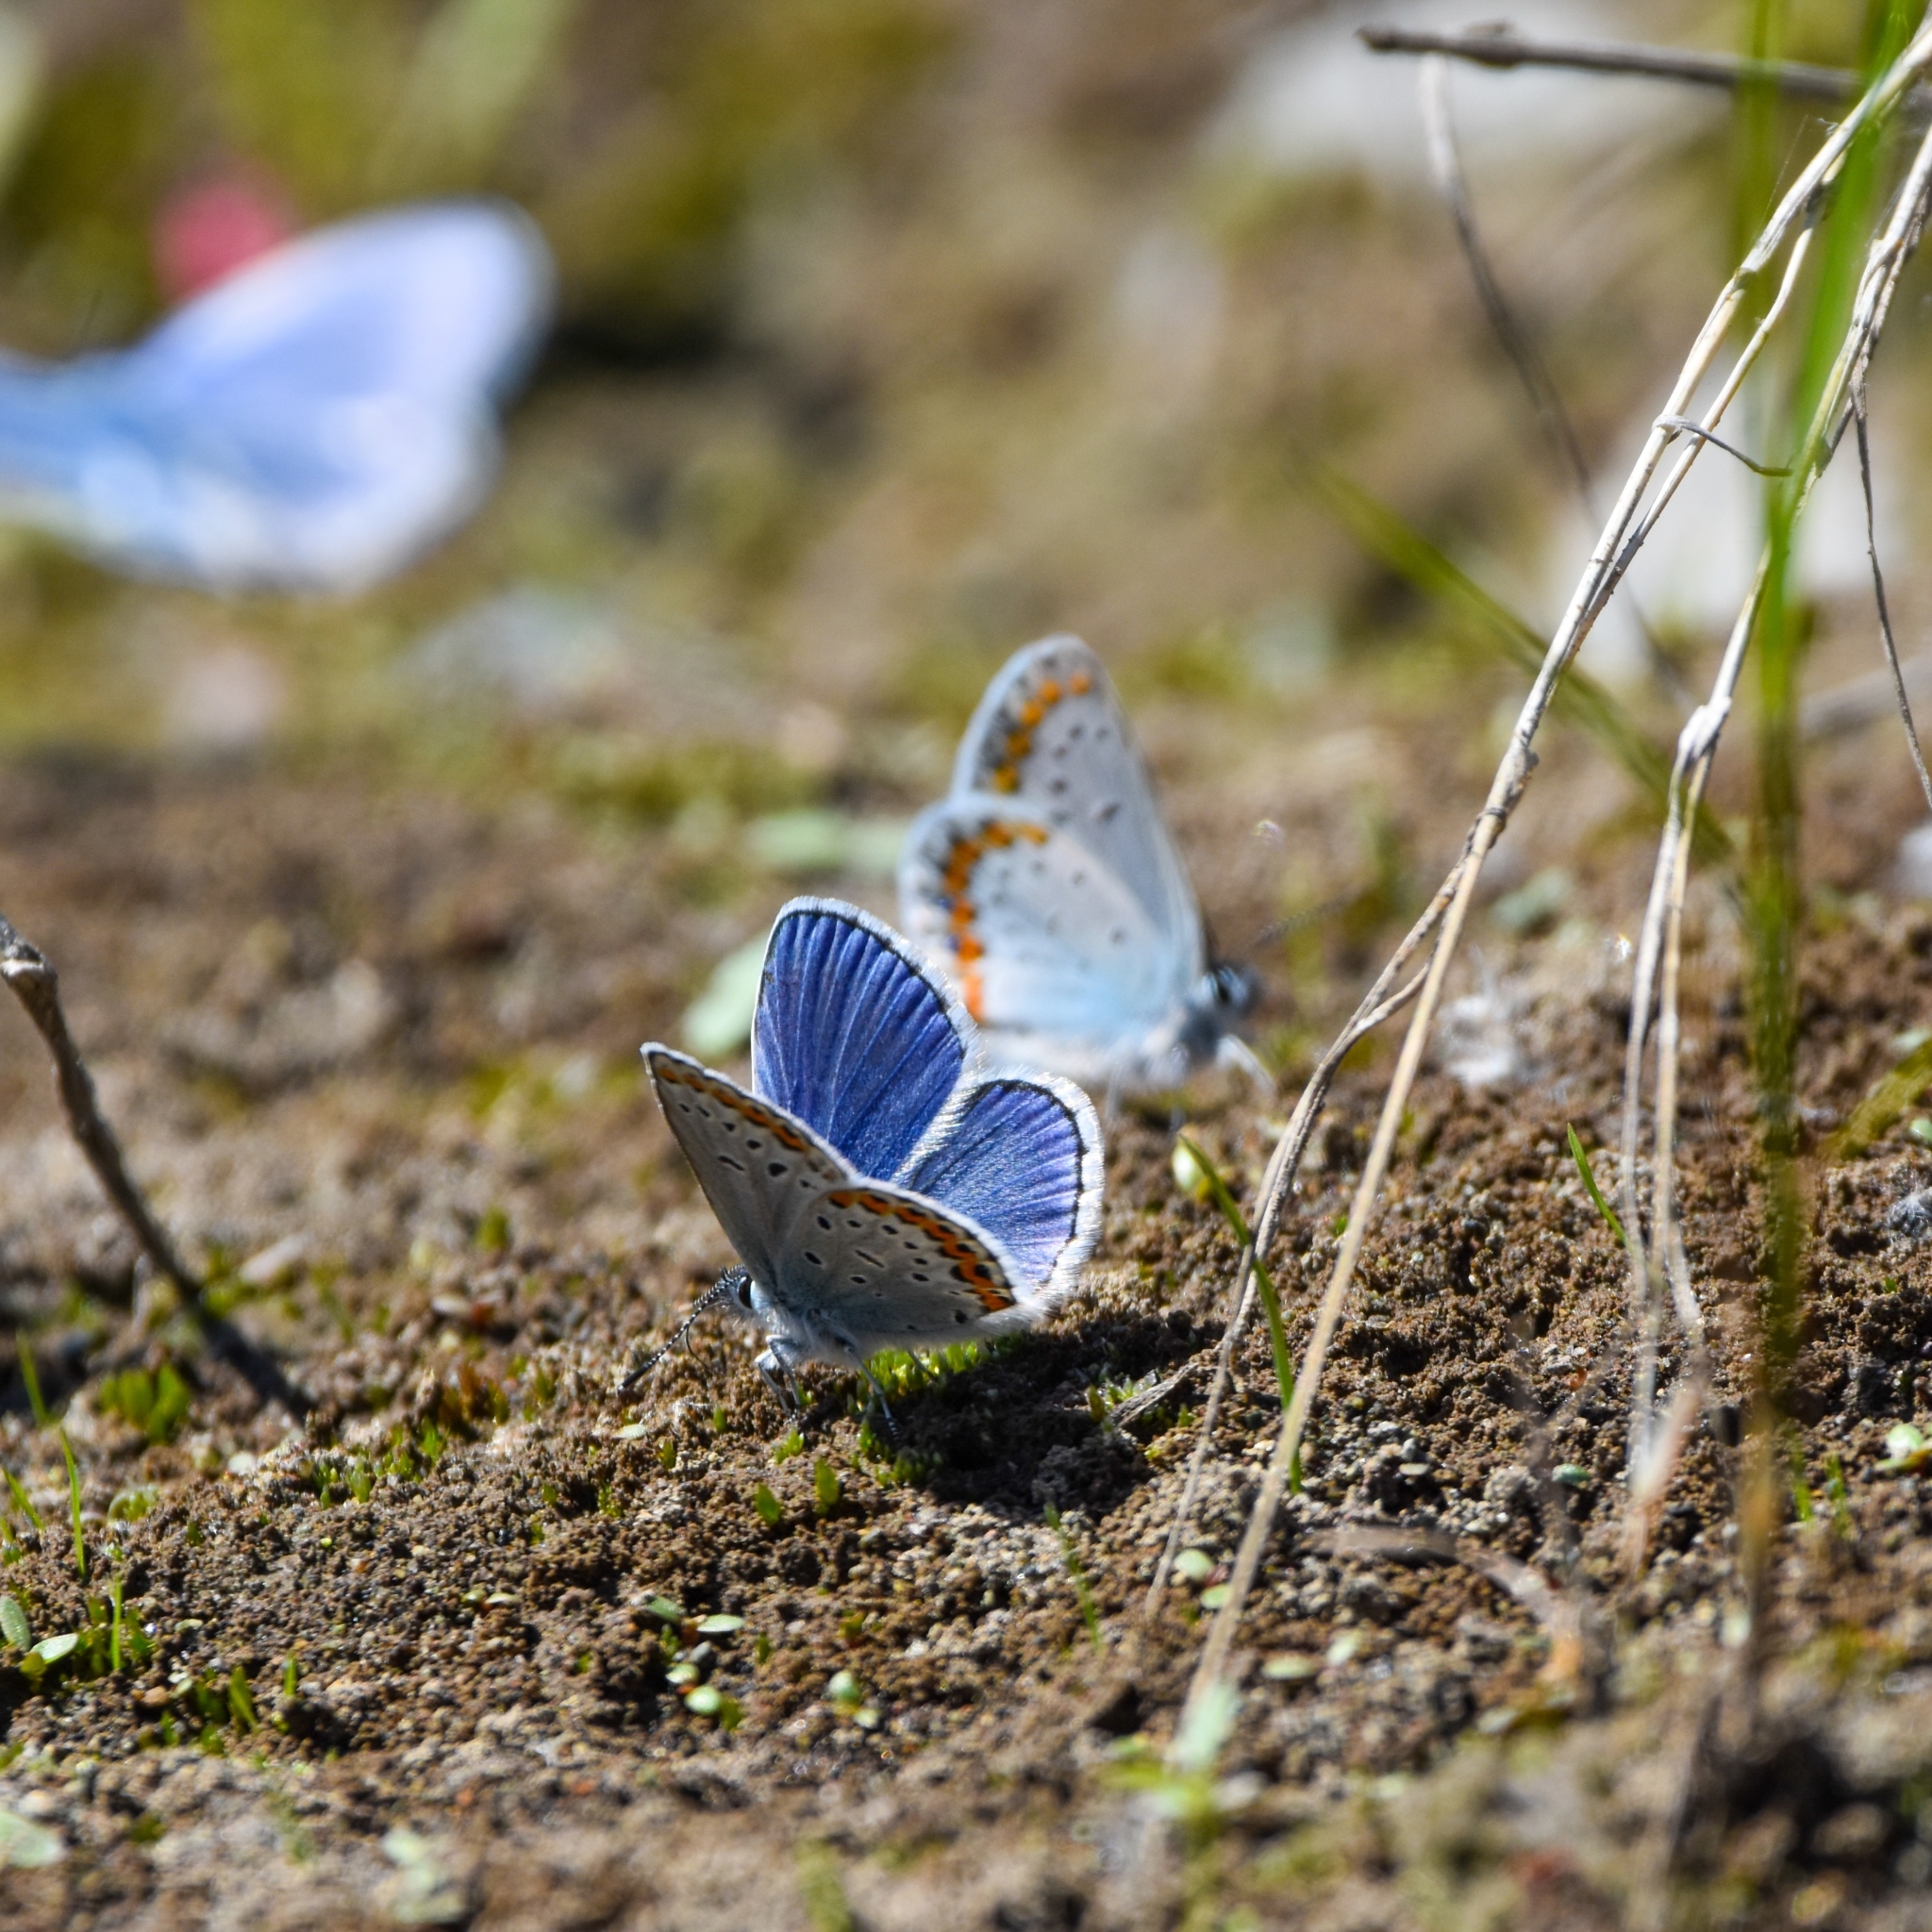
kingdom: Animalia
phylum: Arthropoda
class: Insecta
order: Lepidoptera
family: Lycaenidae
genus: Plebejus
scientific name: Plebejus argyrognomon
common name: Reverdin's blue
